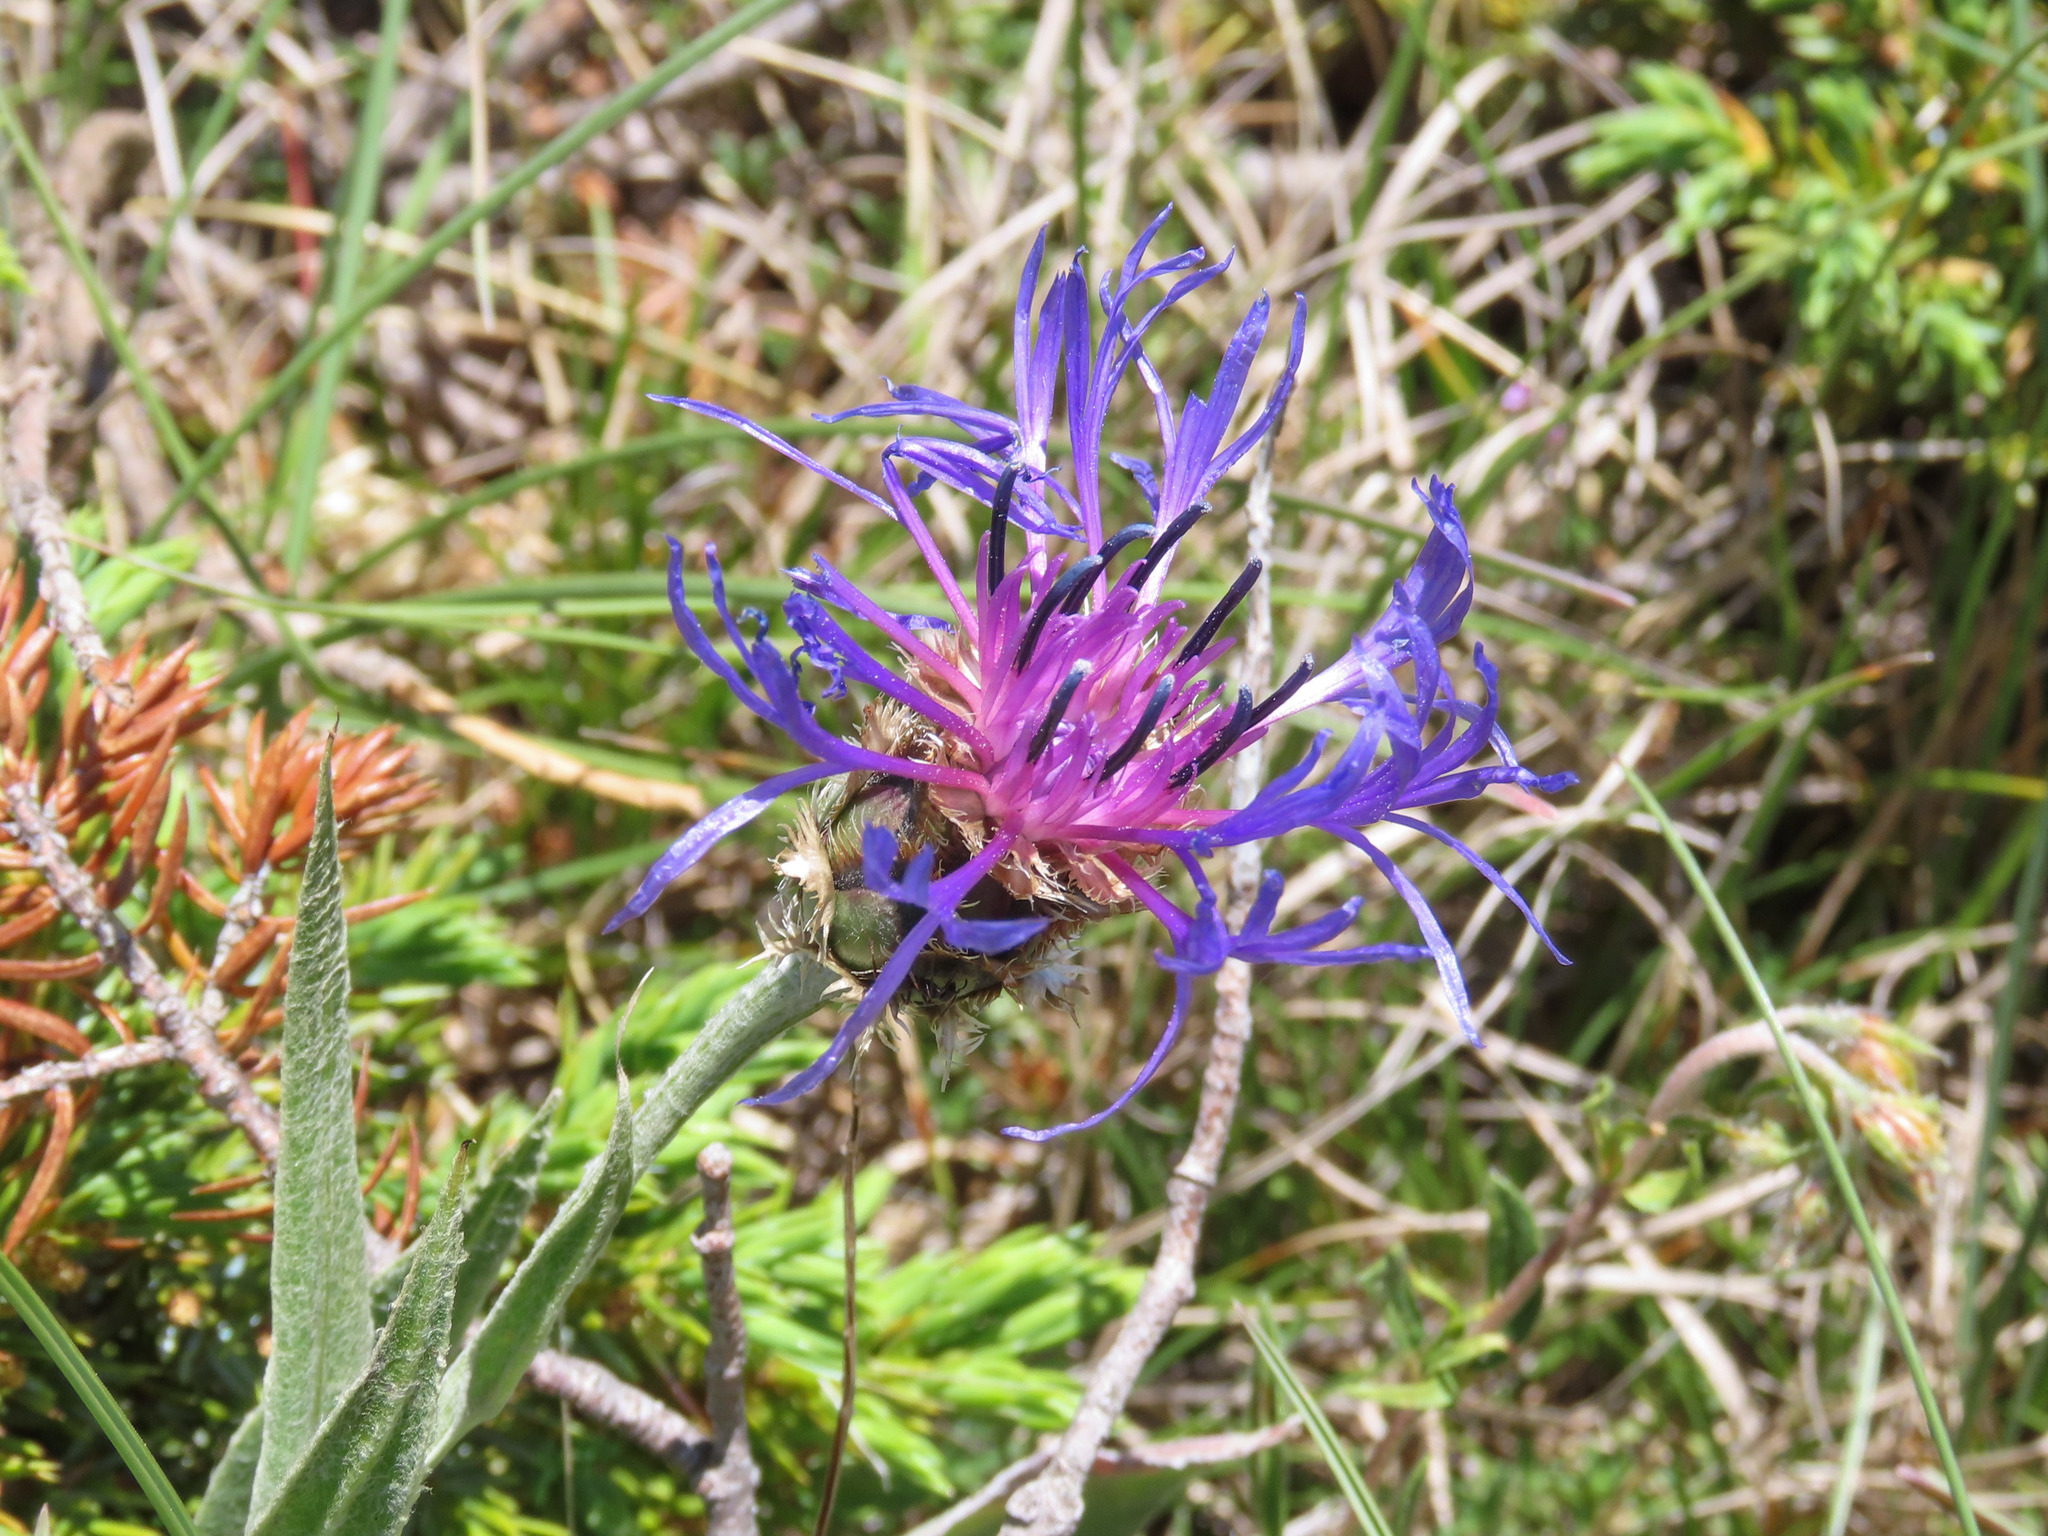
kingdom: Plantae
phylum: Tracheophyta
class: Magnoliopsida
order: Asterales
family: Asteraceae
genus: Centaurea
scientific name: Centaurea triumfettii
